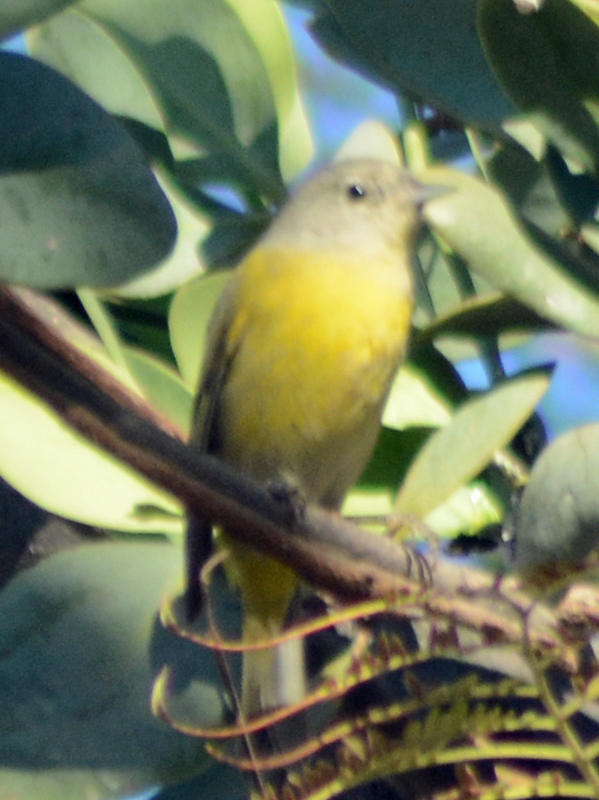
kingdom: Animalia
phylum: Chordata
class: Aves
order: Passeriformes
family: Parulidae
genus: Leiothlypis
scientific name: Leiothlypis ruficapilla
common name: Nashville warbler
